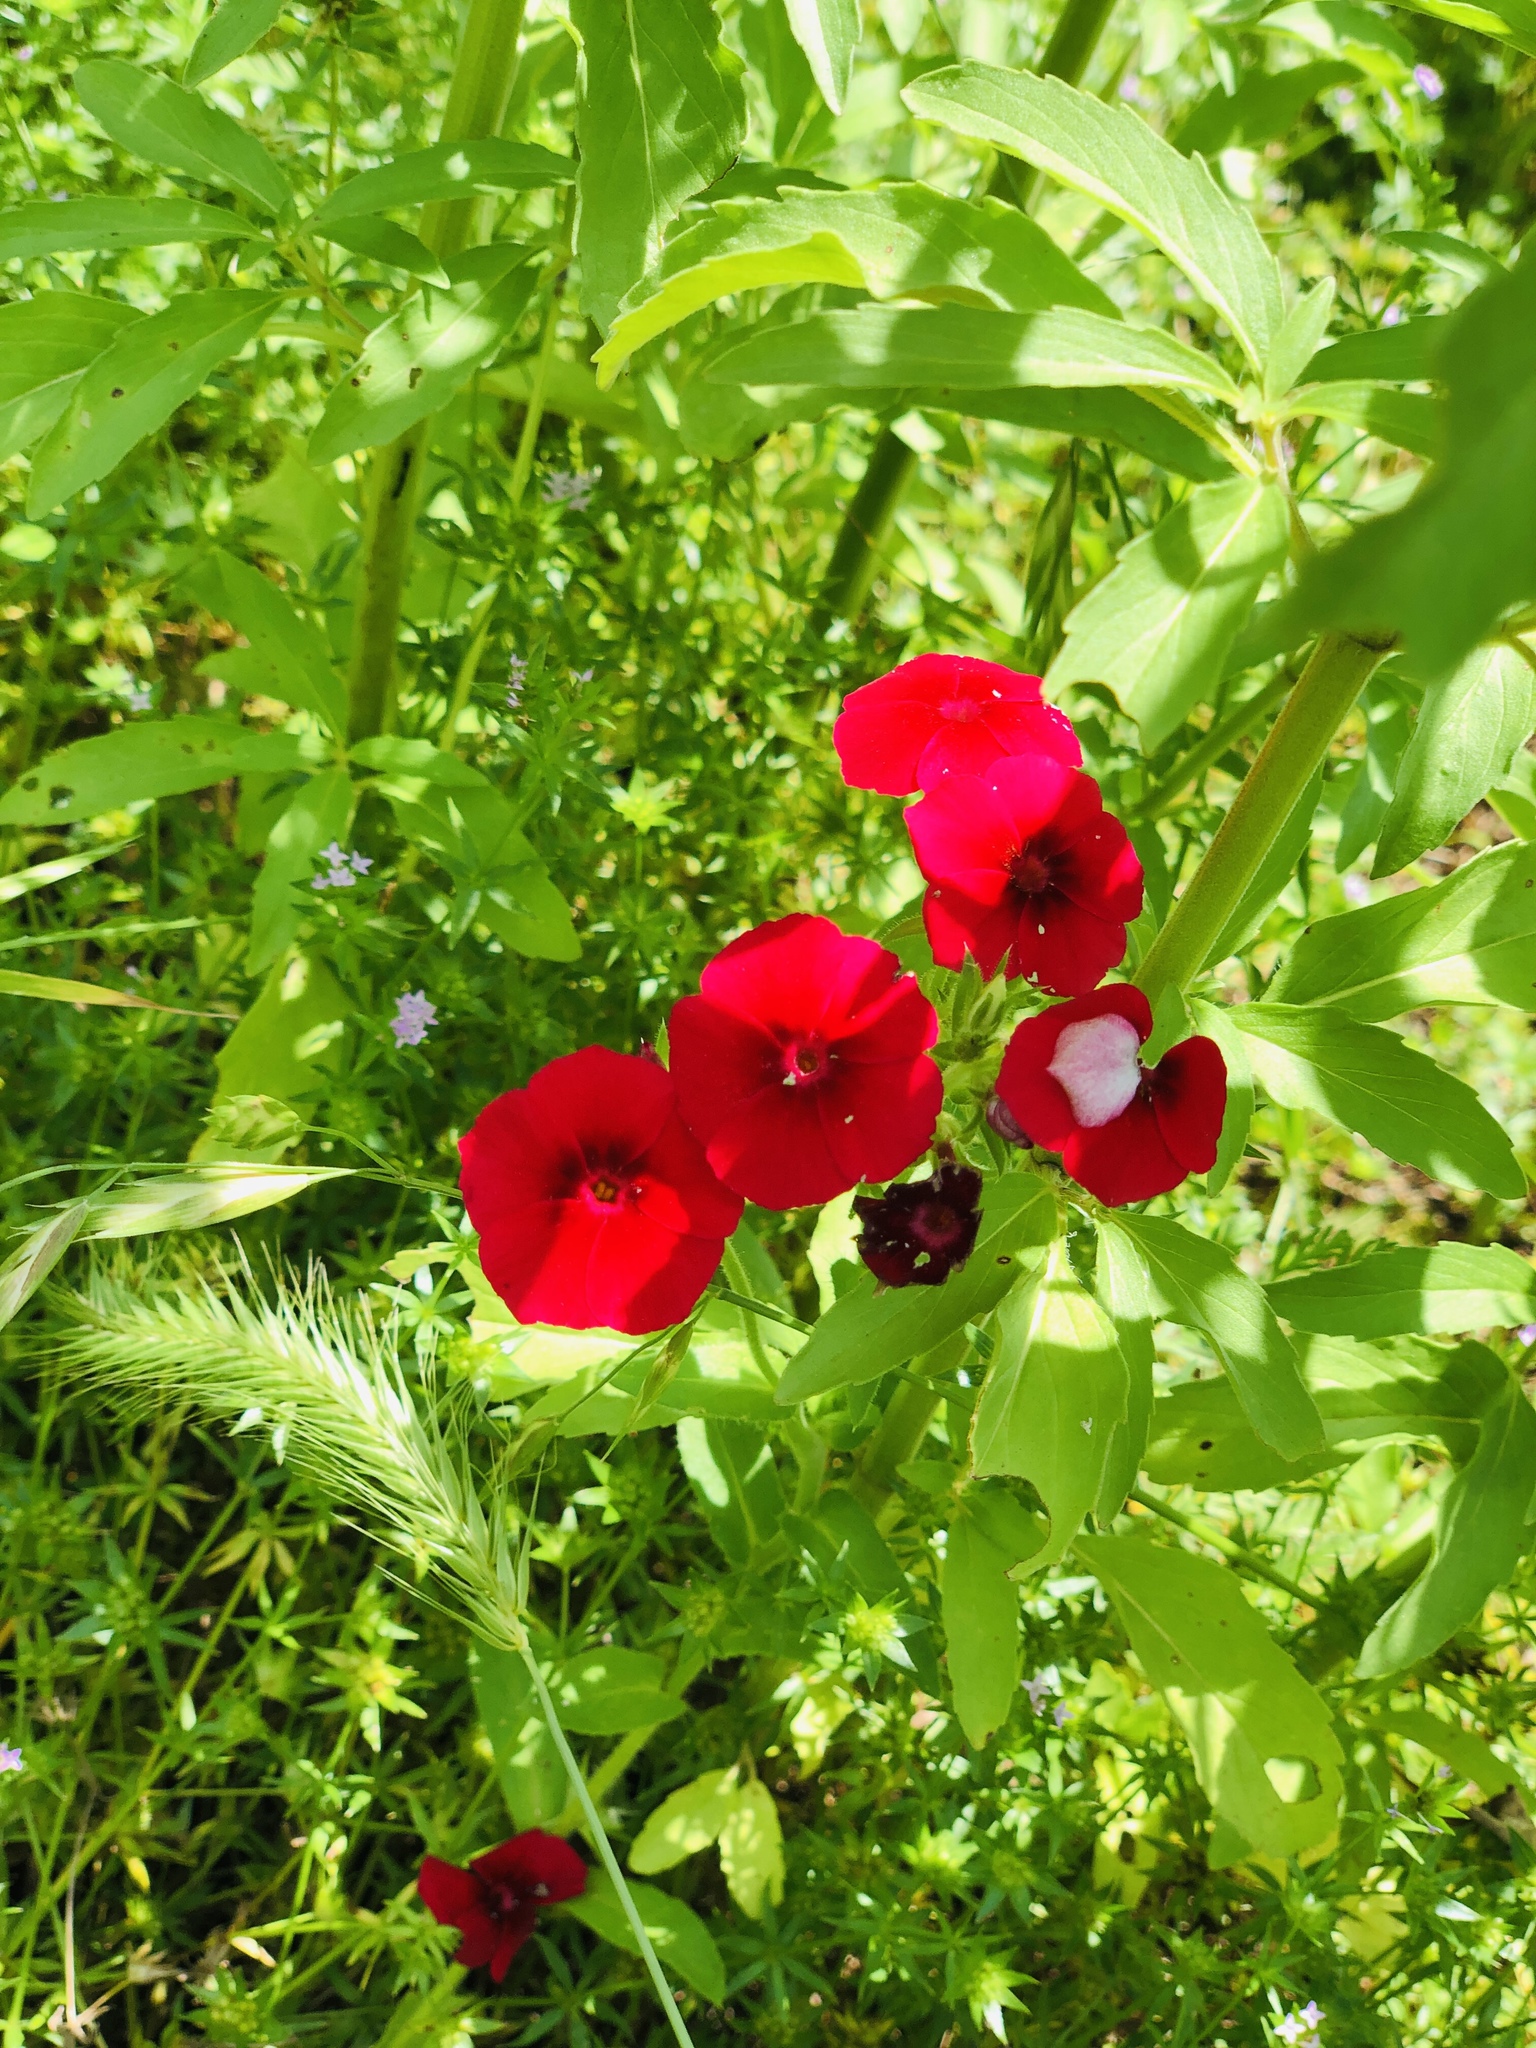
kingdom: Plantae
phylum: Tracheophyta
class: Magnoliopsida
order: Malpighiales
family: Linaceae
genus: Linum
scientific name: Linum grandiflorum
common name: Crimson flax
